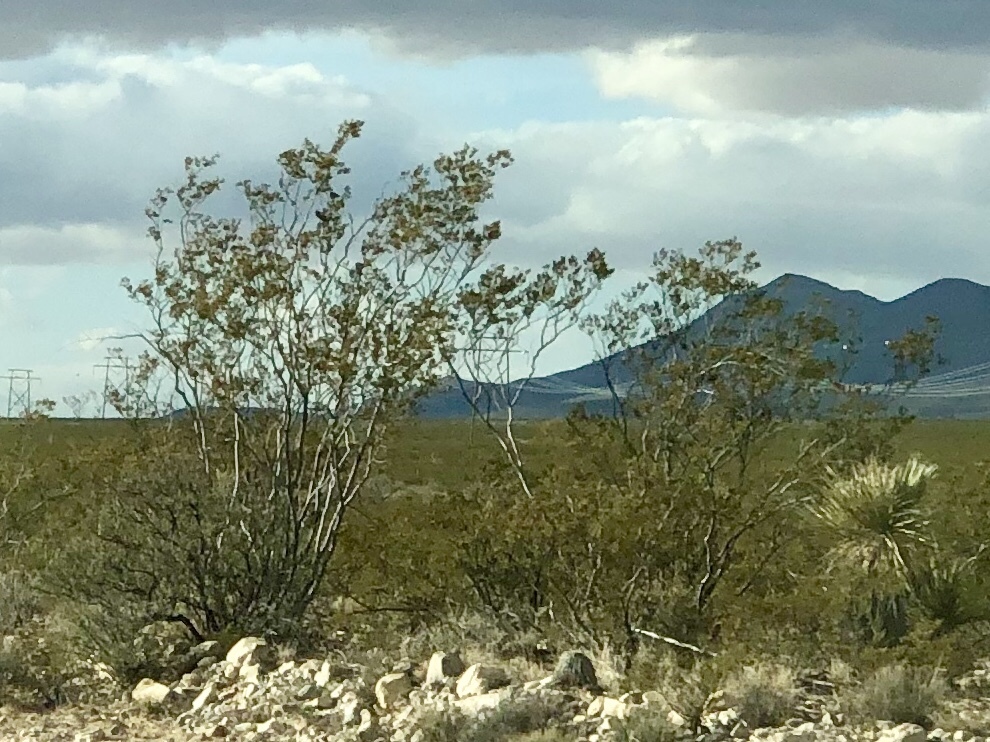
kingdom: Plantae
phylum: Tracheophyta
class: Magnoliopsida
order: Zygophyllales
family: Zygophyllaceae
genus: Larrea
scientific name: Larrea tridentata
